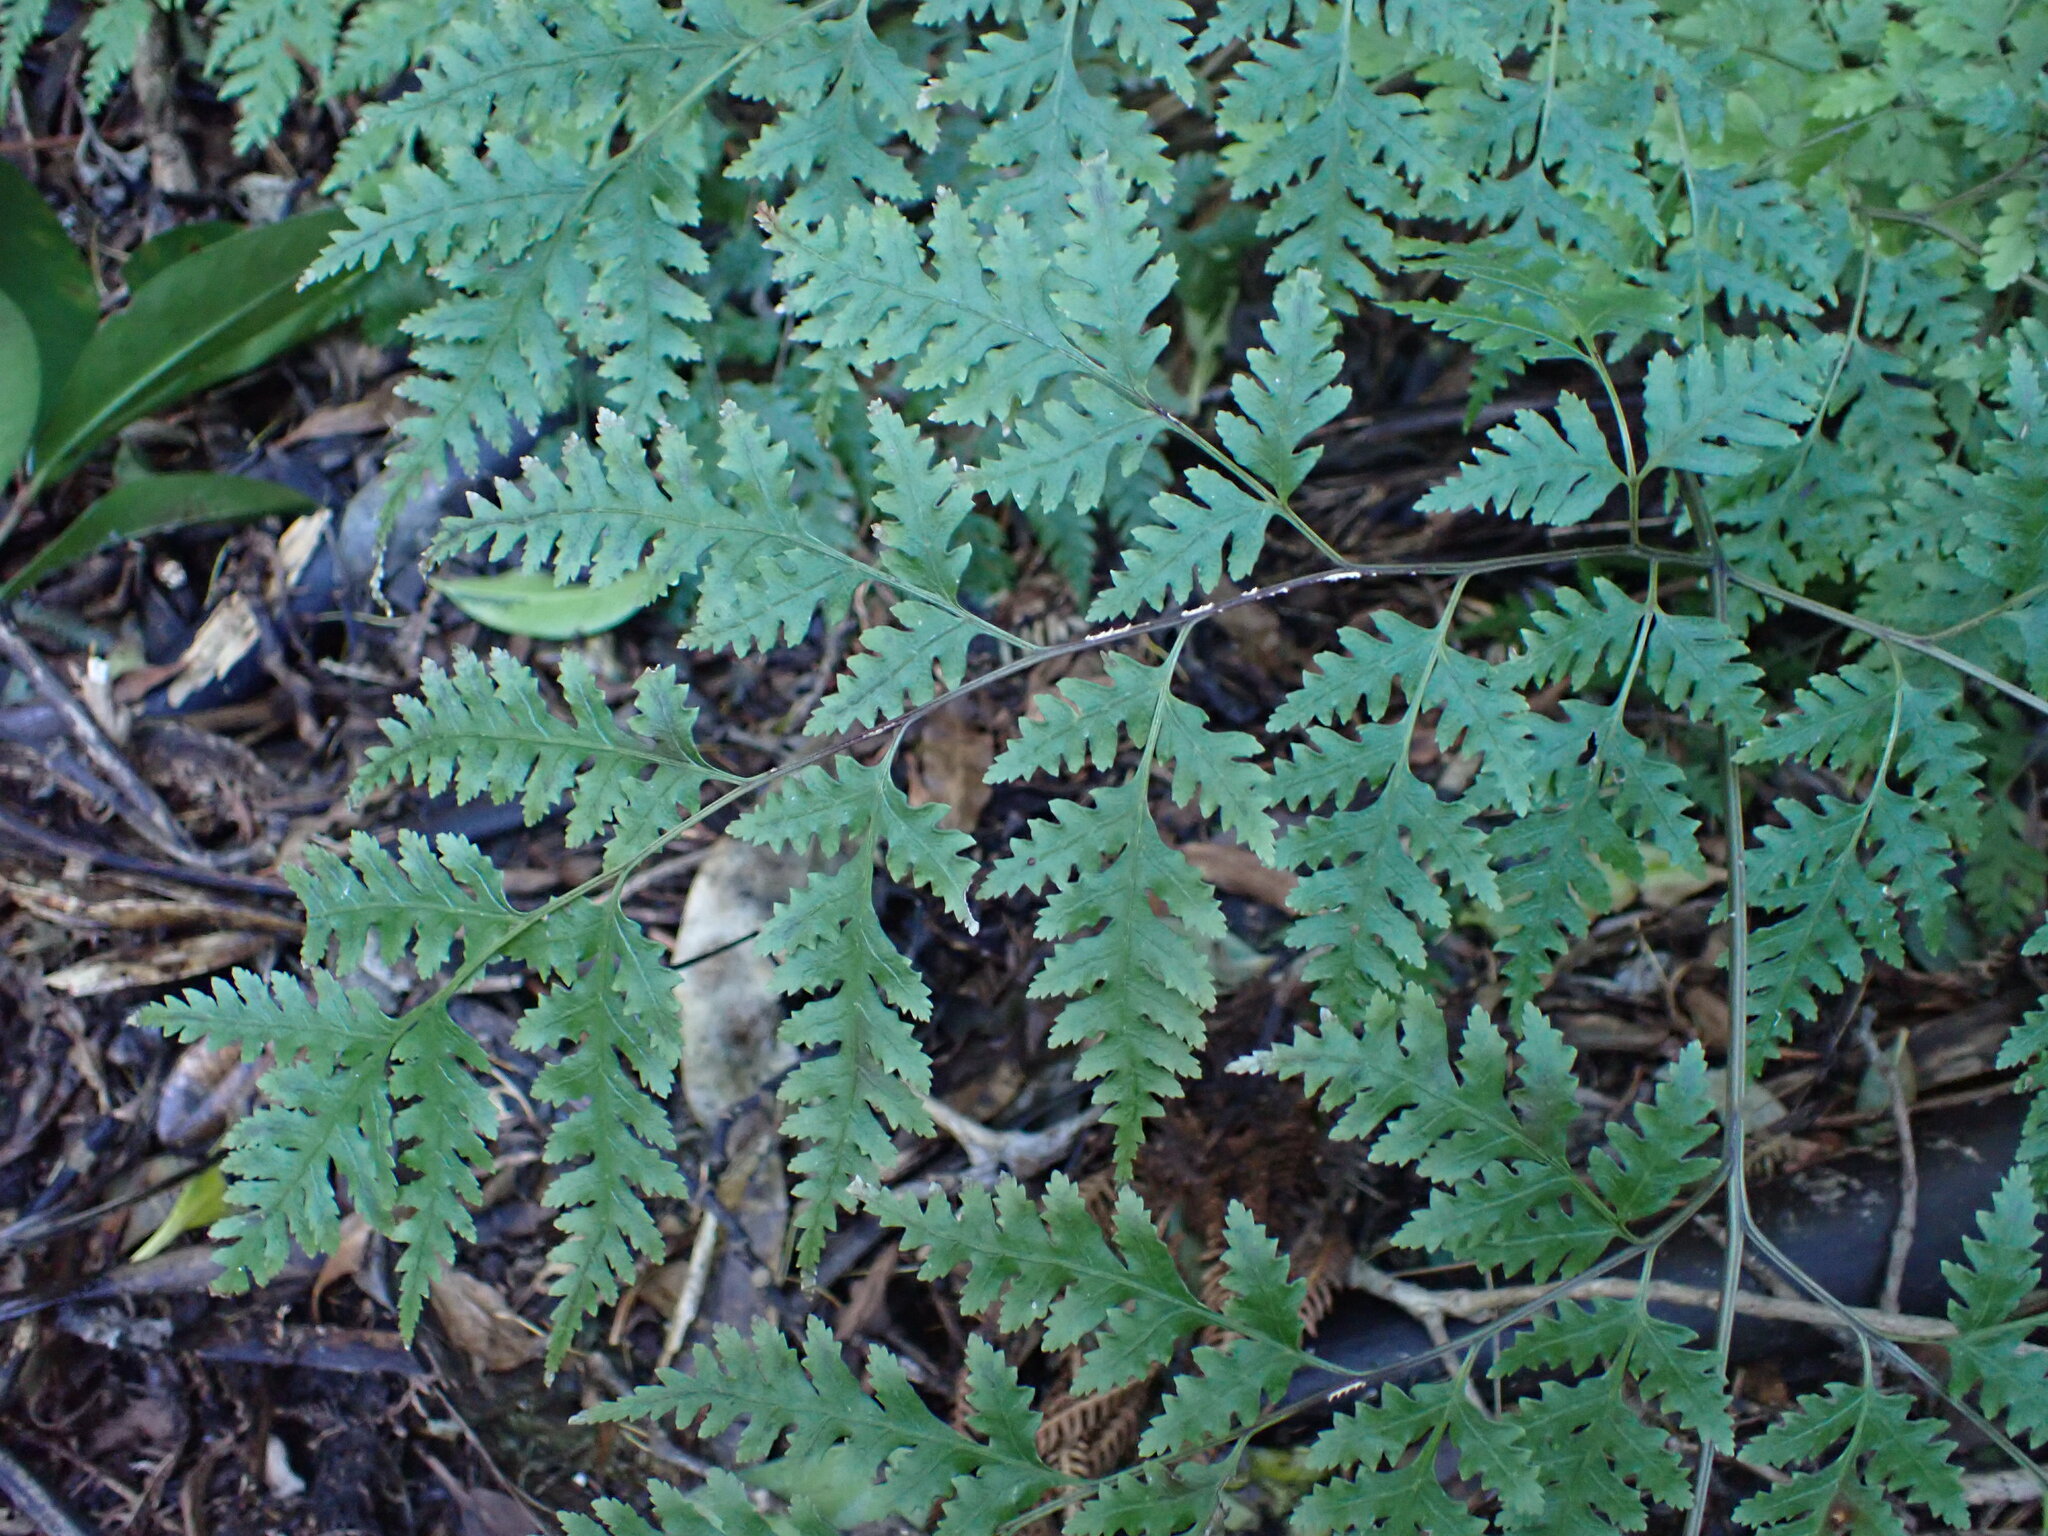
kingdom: Plantae
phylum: Tracheophyta
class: Polypodiopsida
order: Polypodiales
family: Pteridaceae
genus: Pteris
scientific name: Pteris macilenta
